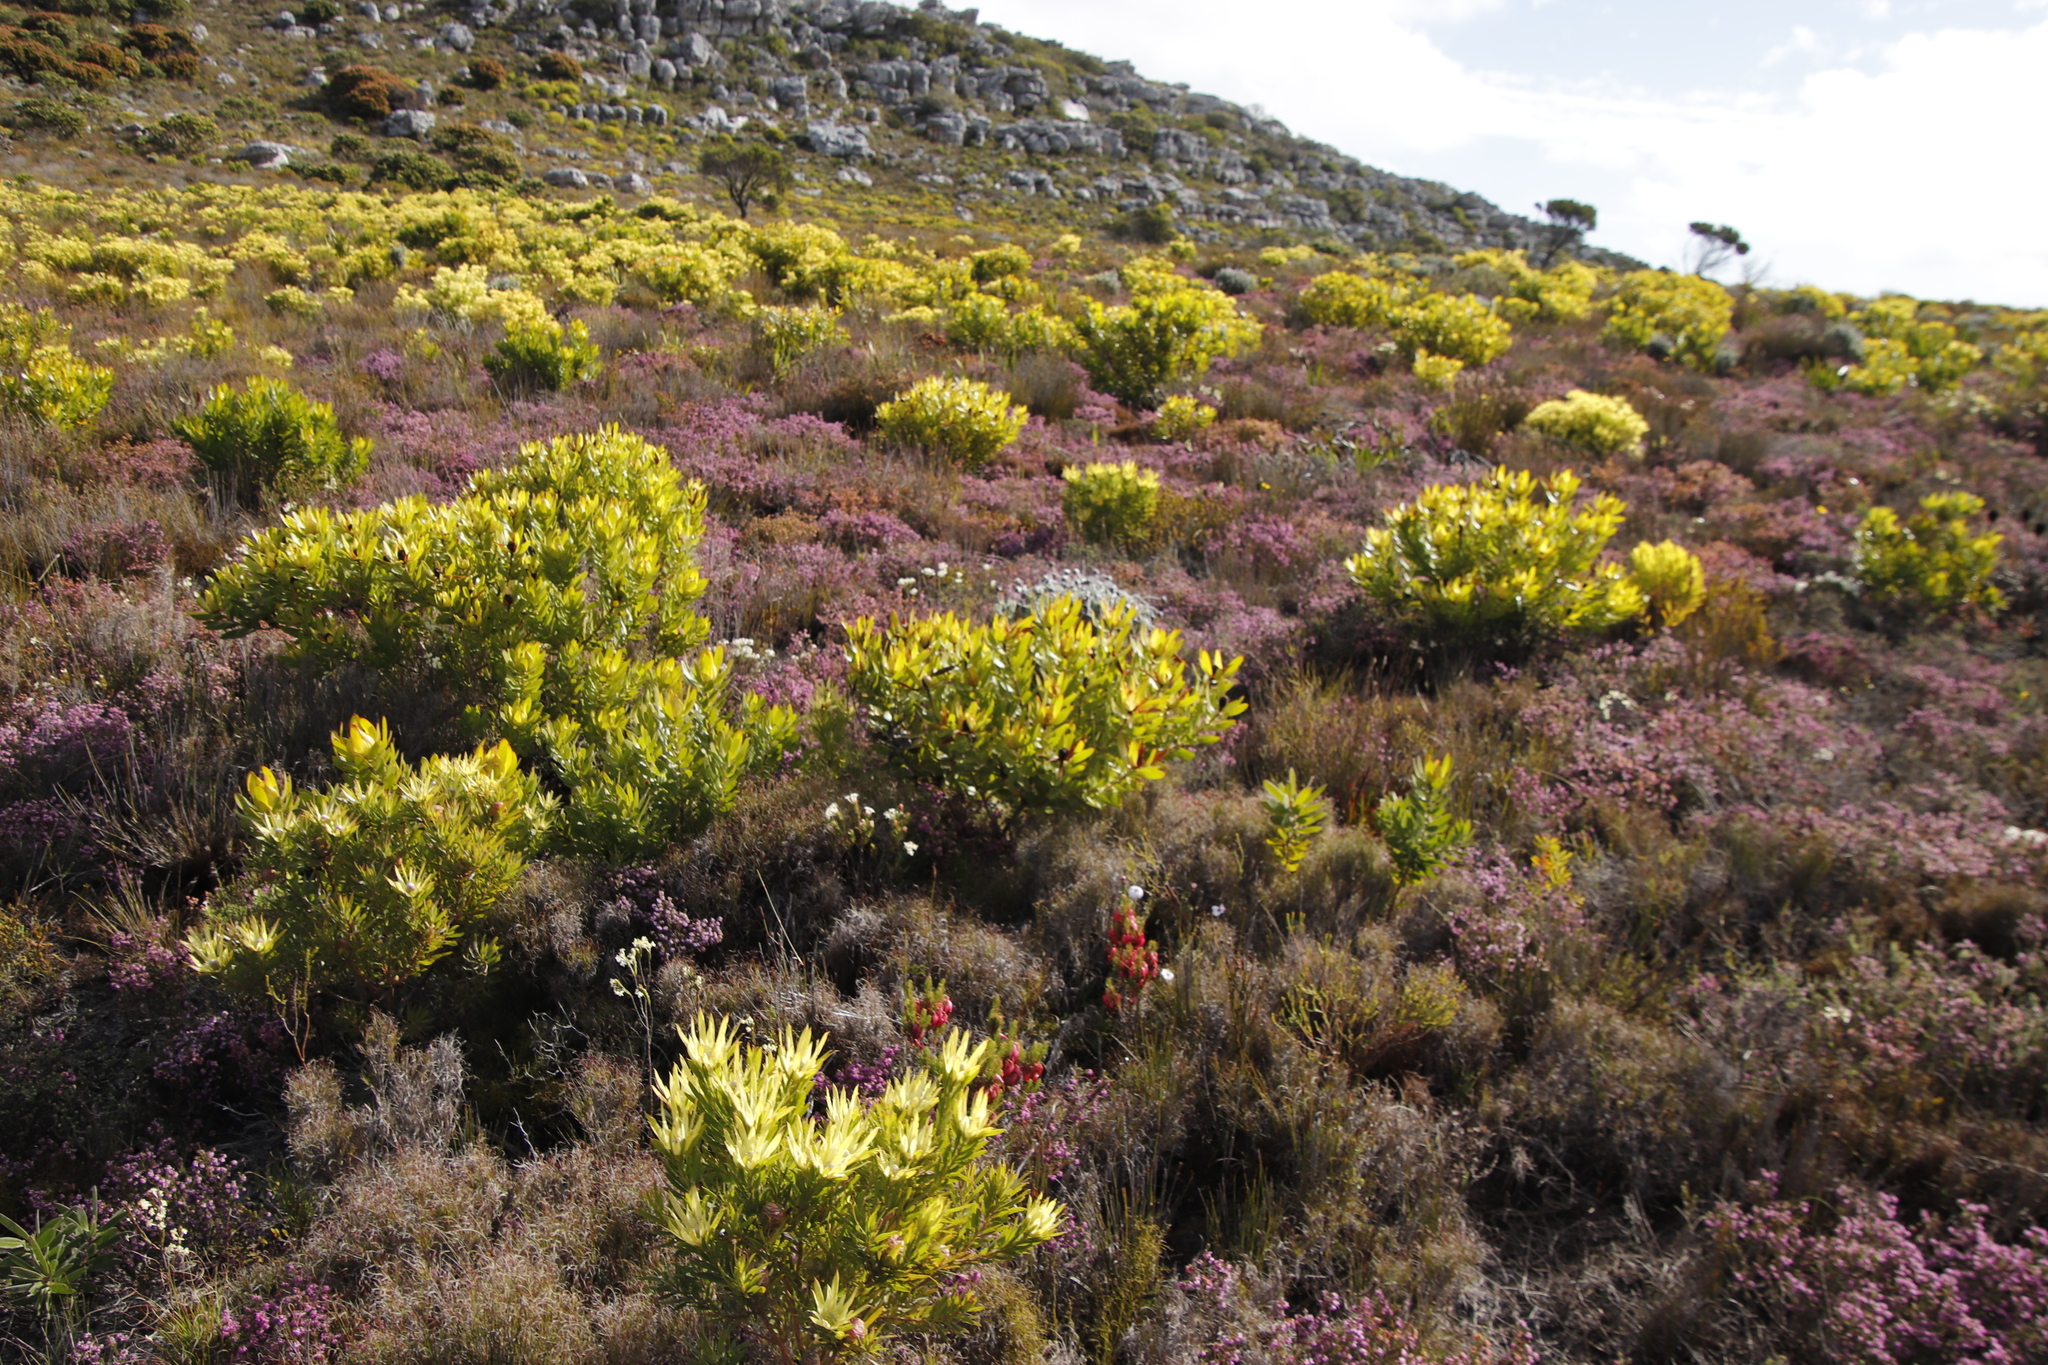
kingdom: Plantae
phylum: Tracheophyta
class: Magnoliopsida
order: Proteales
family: Proteaceae
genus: Leucadendron
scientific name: Leucadendron laureolum
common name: Golden sunshinebush
